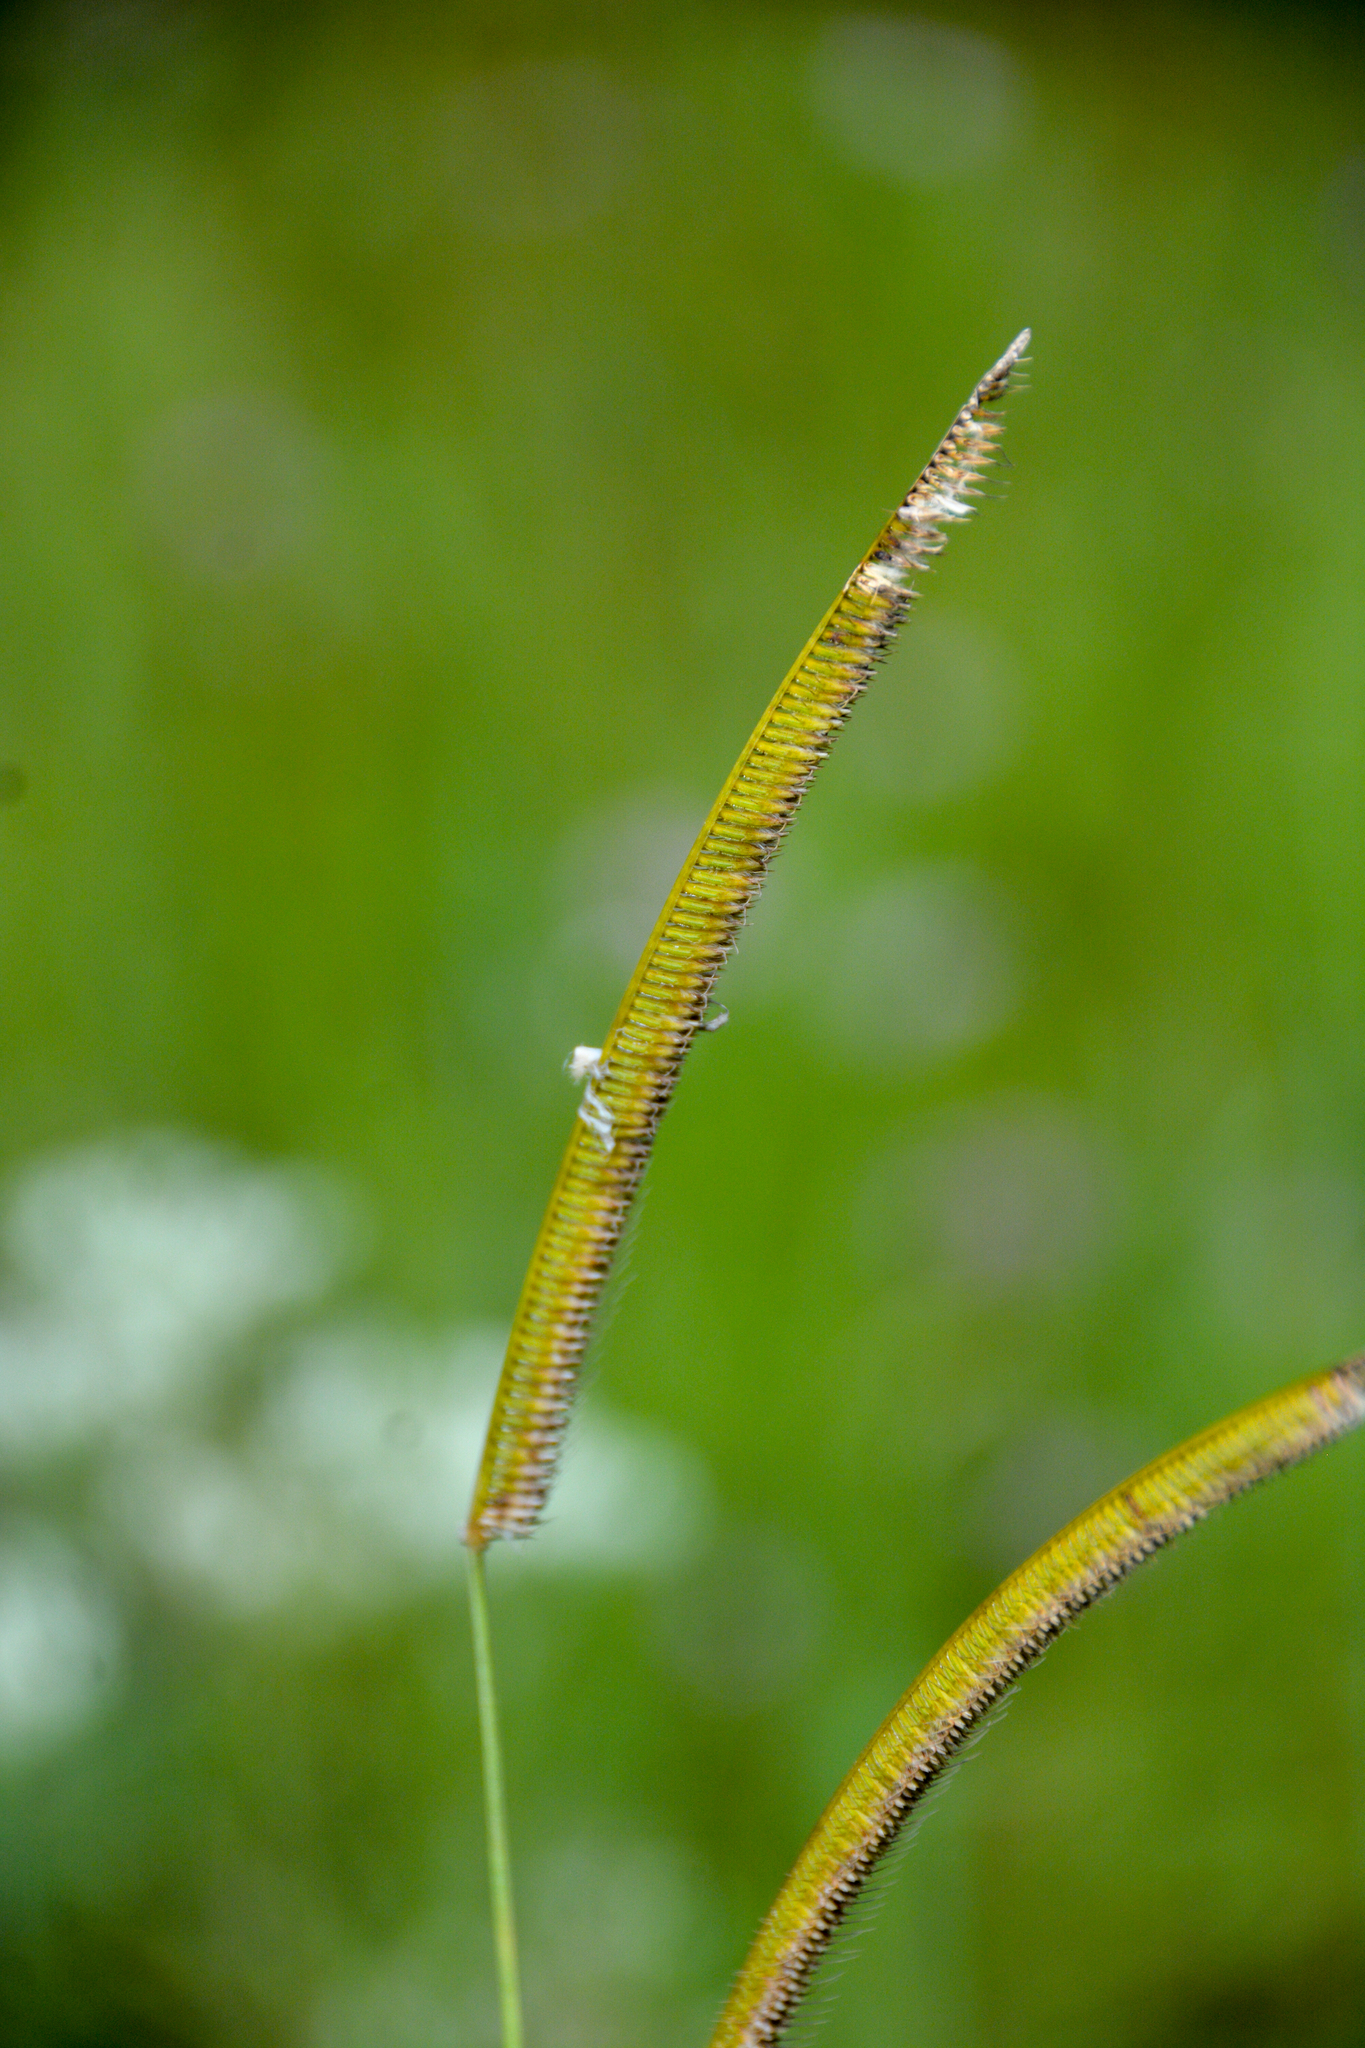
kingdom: Plantae
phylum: Tracheophyta
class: Liliopsida
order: Poales
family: Poaceae
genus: Ctenium
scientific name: Ctenium aromaticum
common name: Toothache grass
